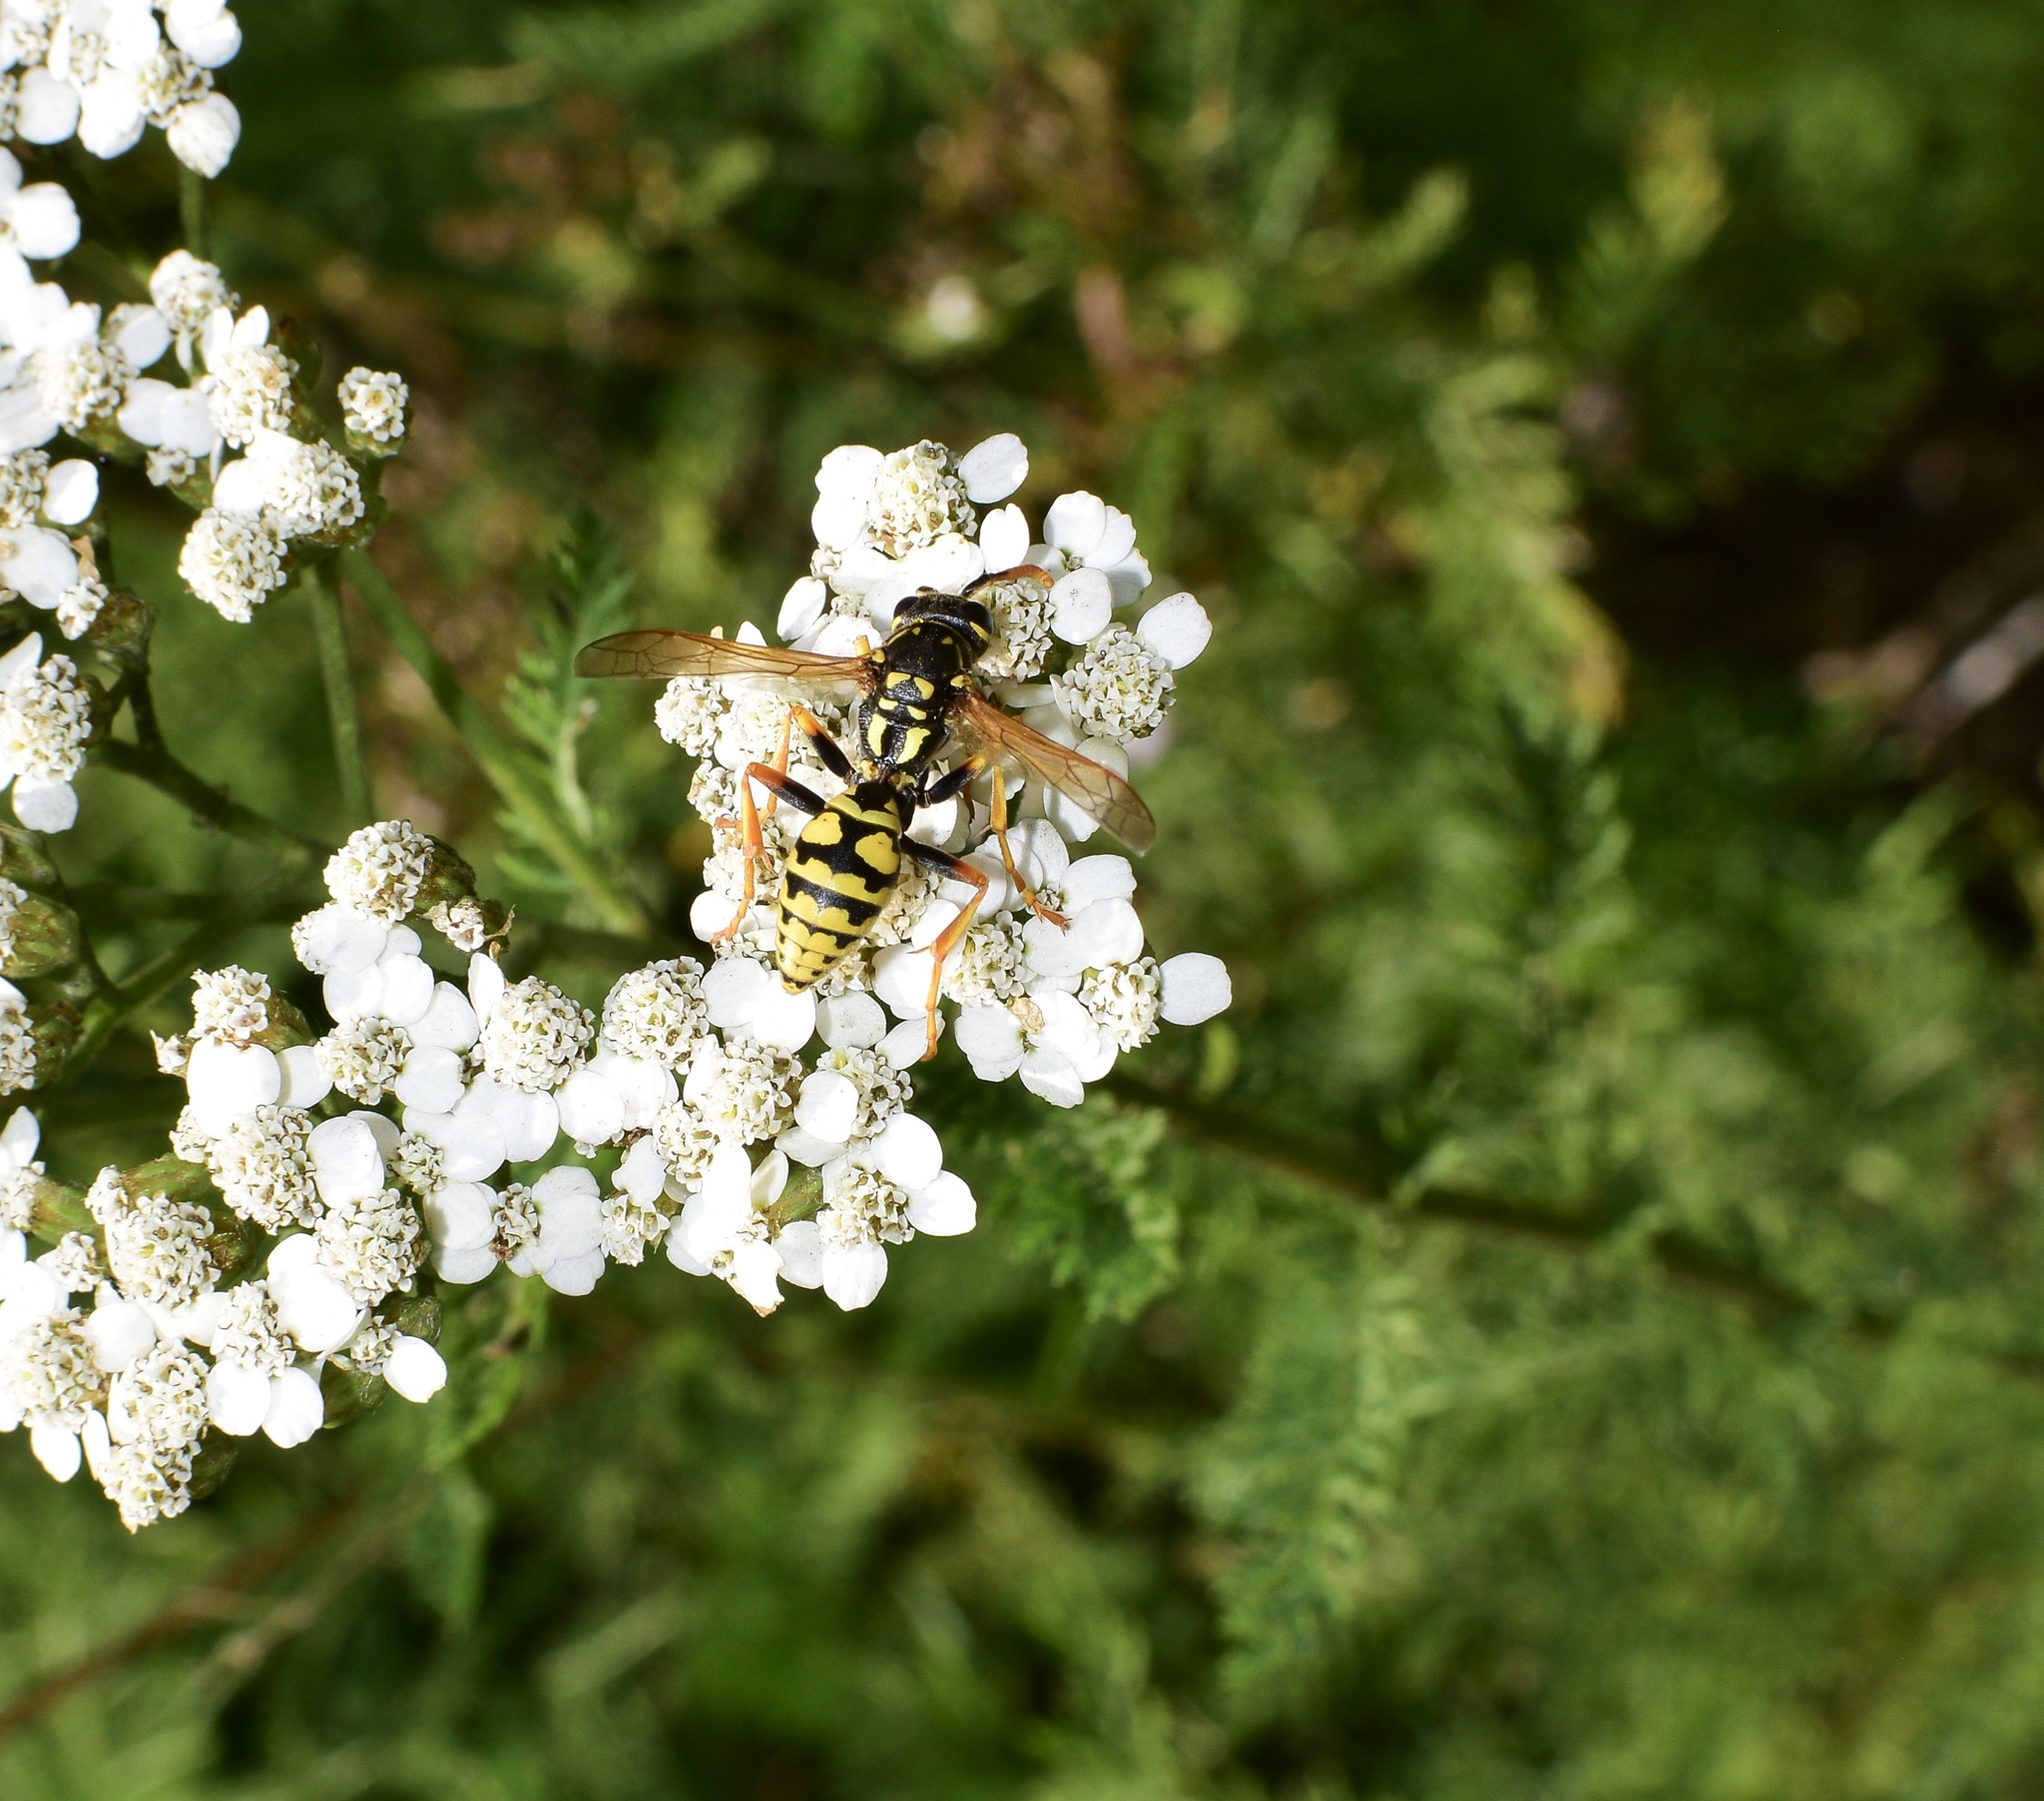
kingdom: Animalia
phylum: Arthropoda
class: Insecta
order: Hymenoptera
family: Eumenidae
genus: Polistes
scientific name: Polistes dominula
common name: Paper wasp
